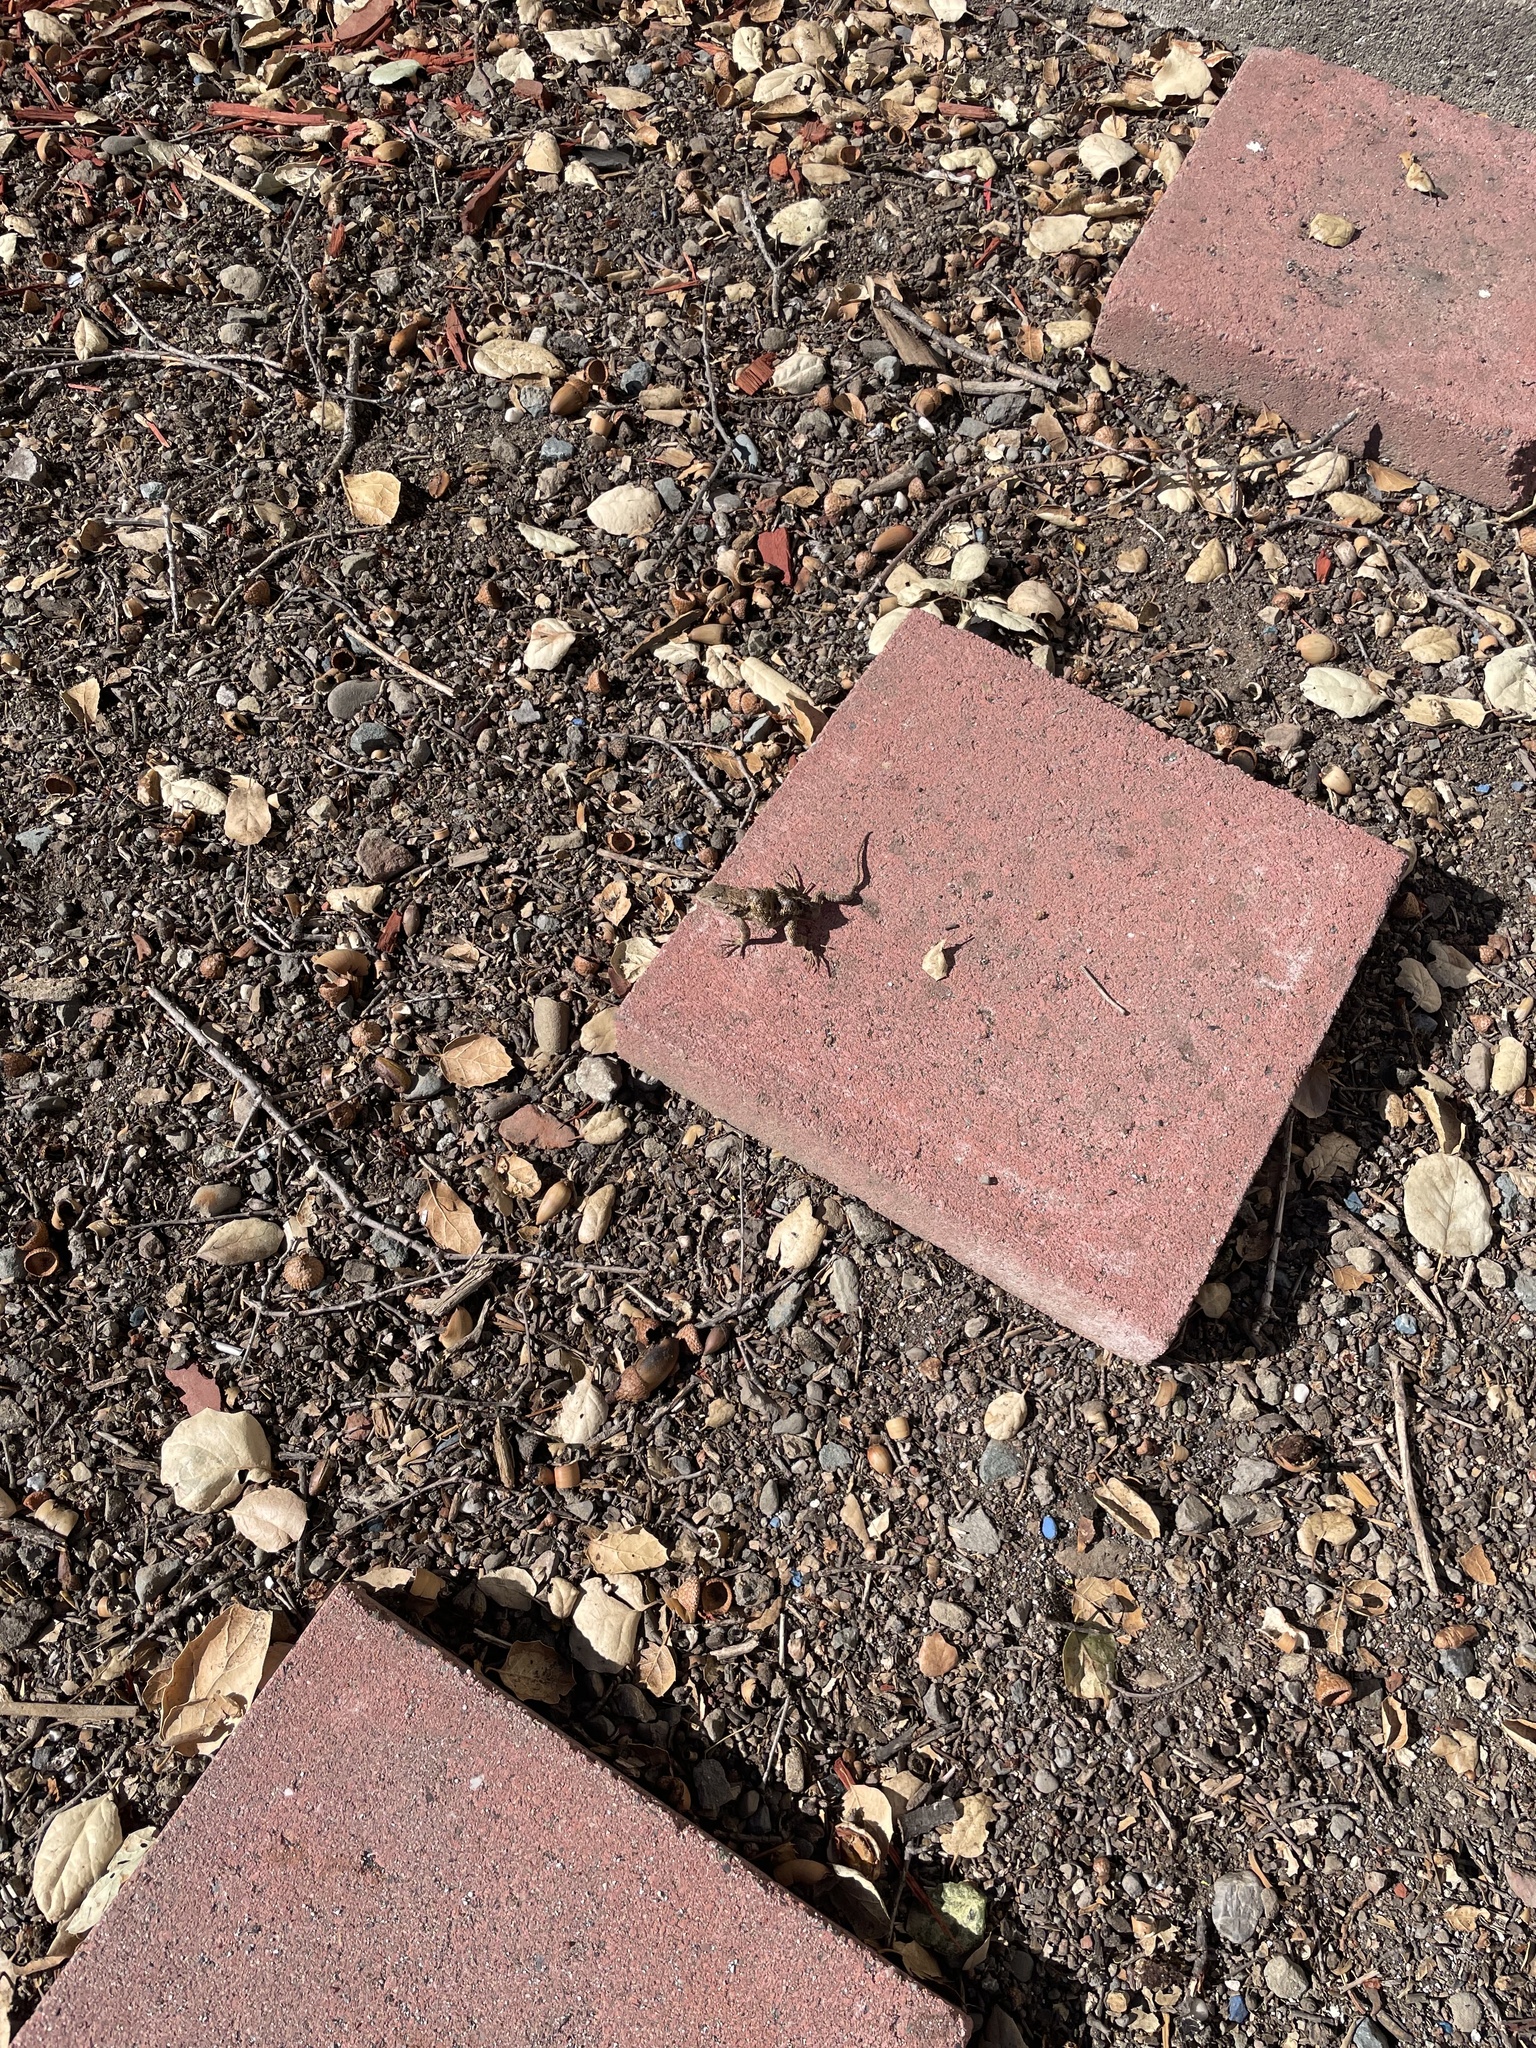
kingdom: Animalia
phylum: Chordata
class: Squamata
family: Phrynosomatidae
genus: Sceloporus
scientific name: Sceloporus occidentalis
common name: Western fence lizard
